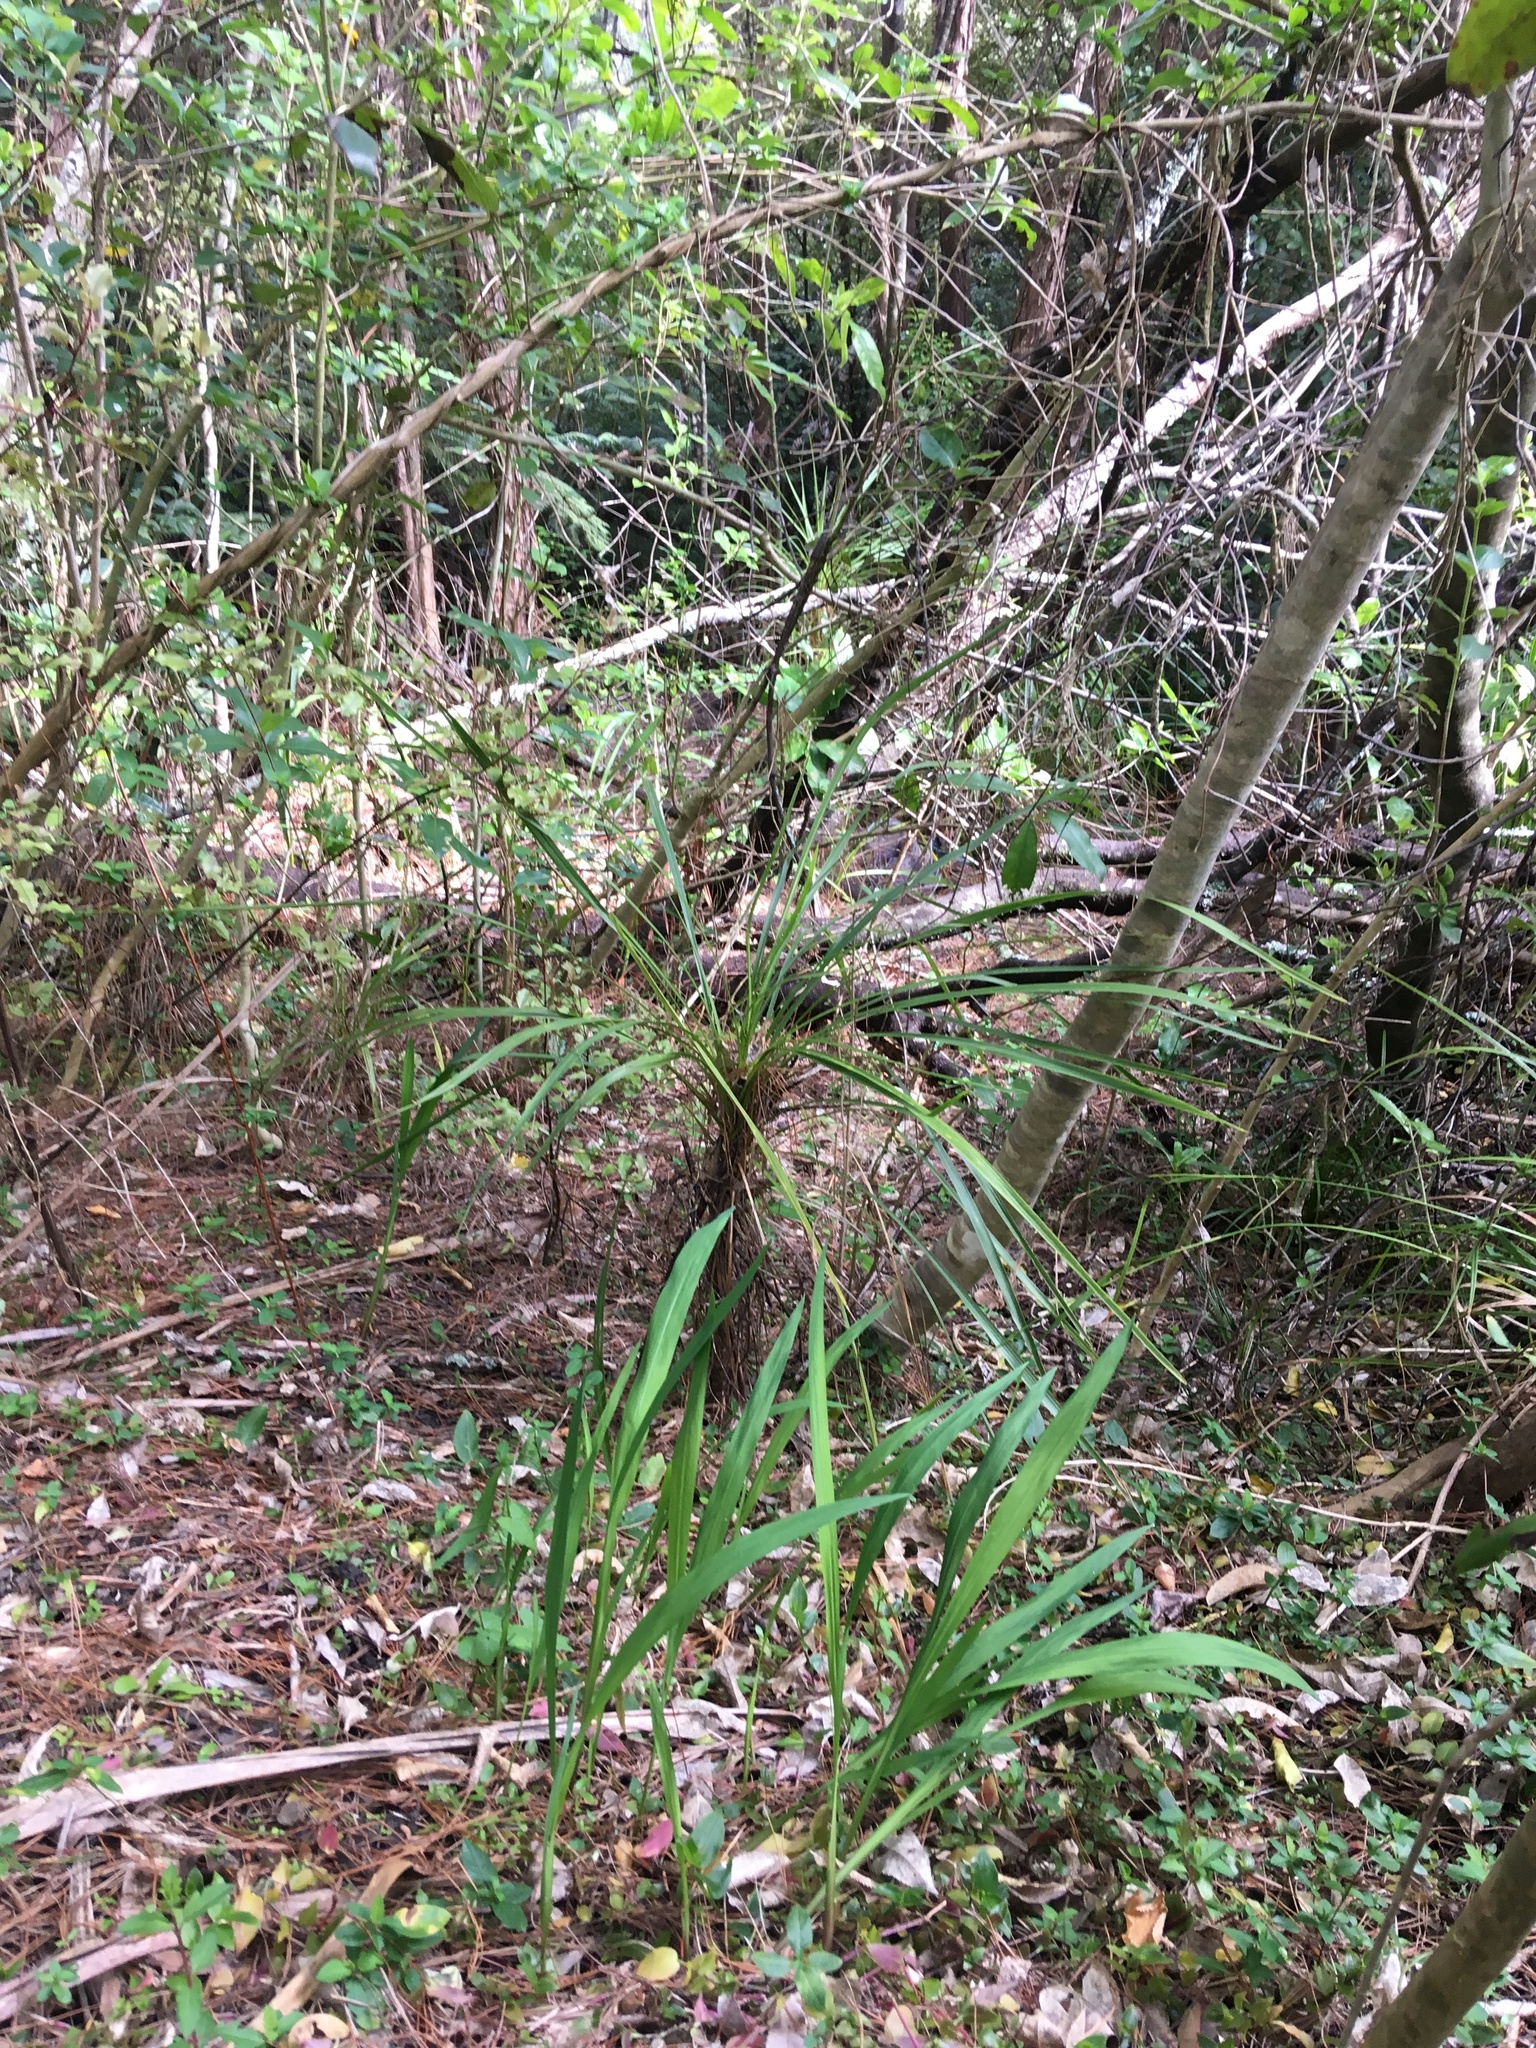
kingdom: Plantae
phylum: Tracheophyta
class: Liliopsida
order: Asparagales
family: Iridaceae
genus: Crocosmia
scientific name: Crocosmia crocosmiiflora
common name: Montbretia
